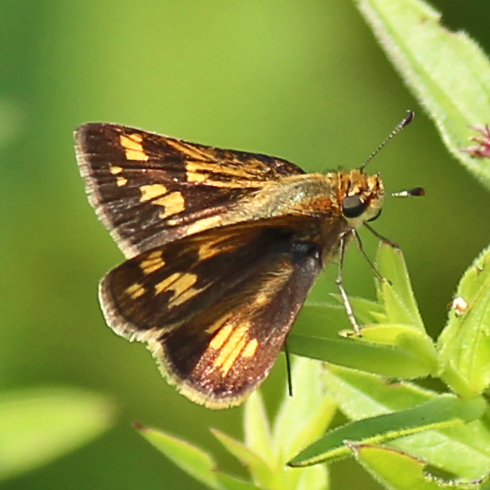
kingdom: Animalia
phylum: Arthropoda
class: Insecta
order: Lepidoptera
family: Hesperiidae
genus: Polites
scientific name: Polites coras
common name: Peck's skipper
